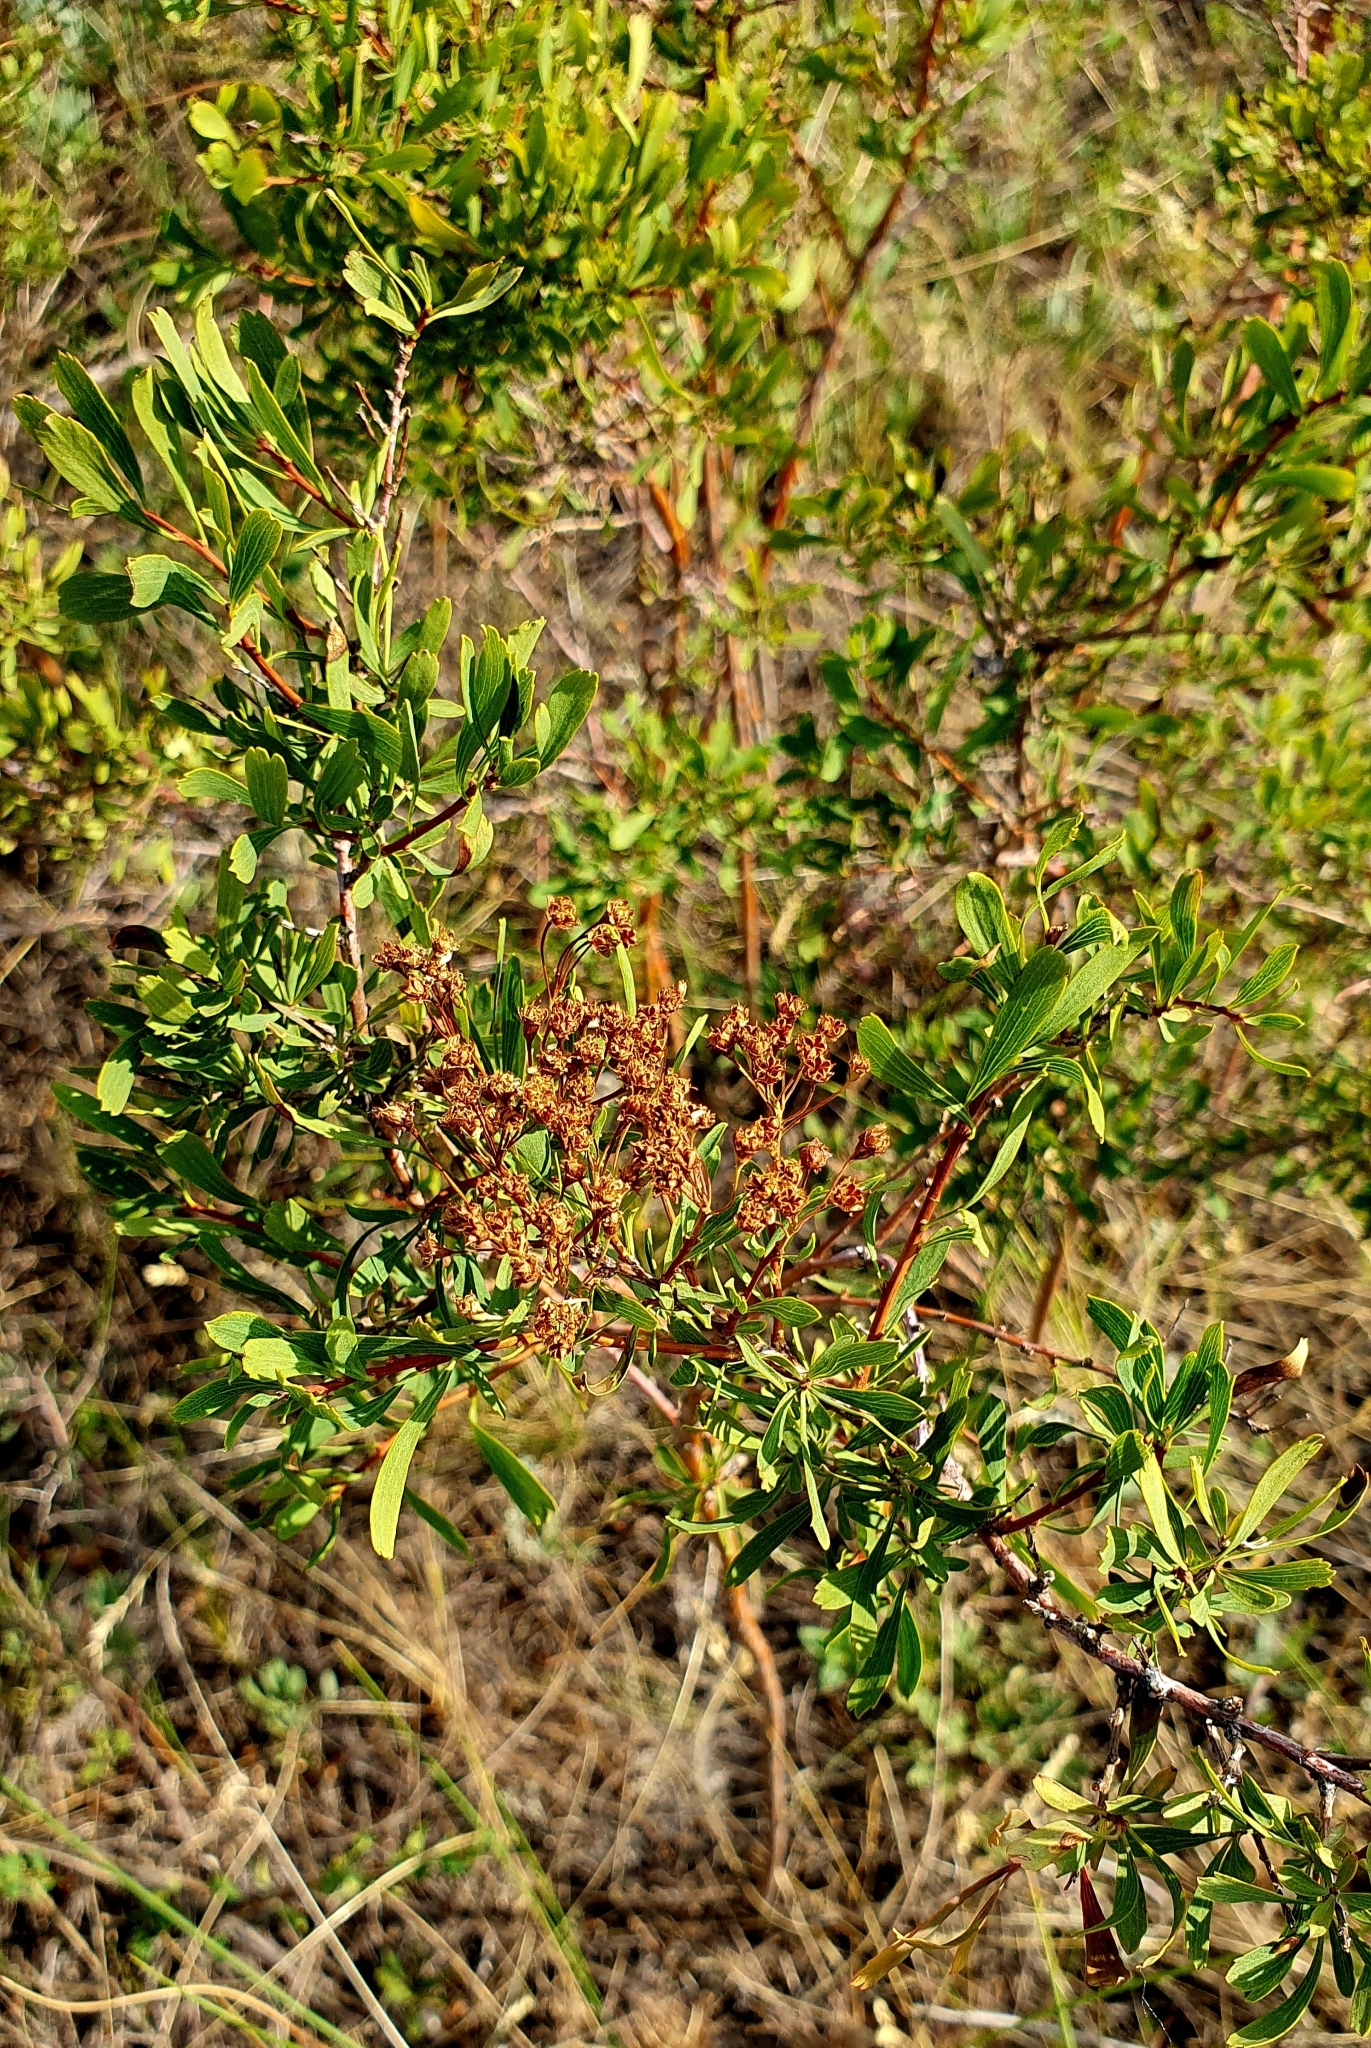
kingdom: Plantae
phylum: Tracheophyta
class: Magnoliopsida
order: Rosales
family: Rosaceae
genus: Spiraea
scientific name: Spiraea crenata
